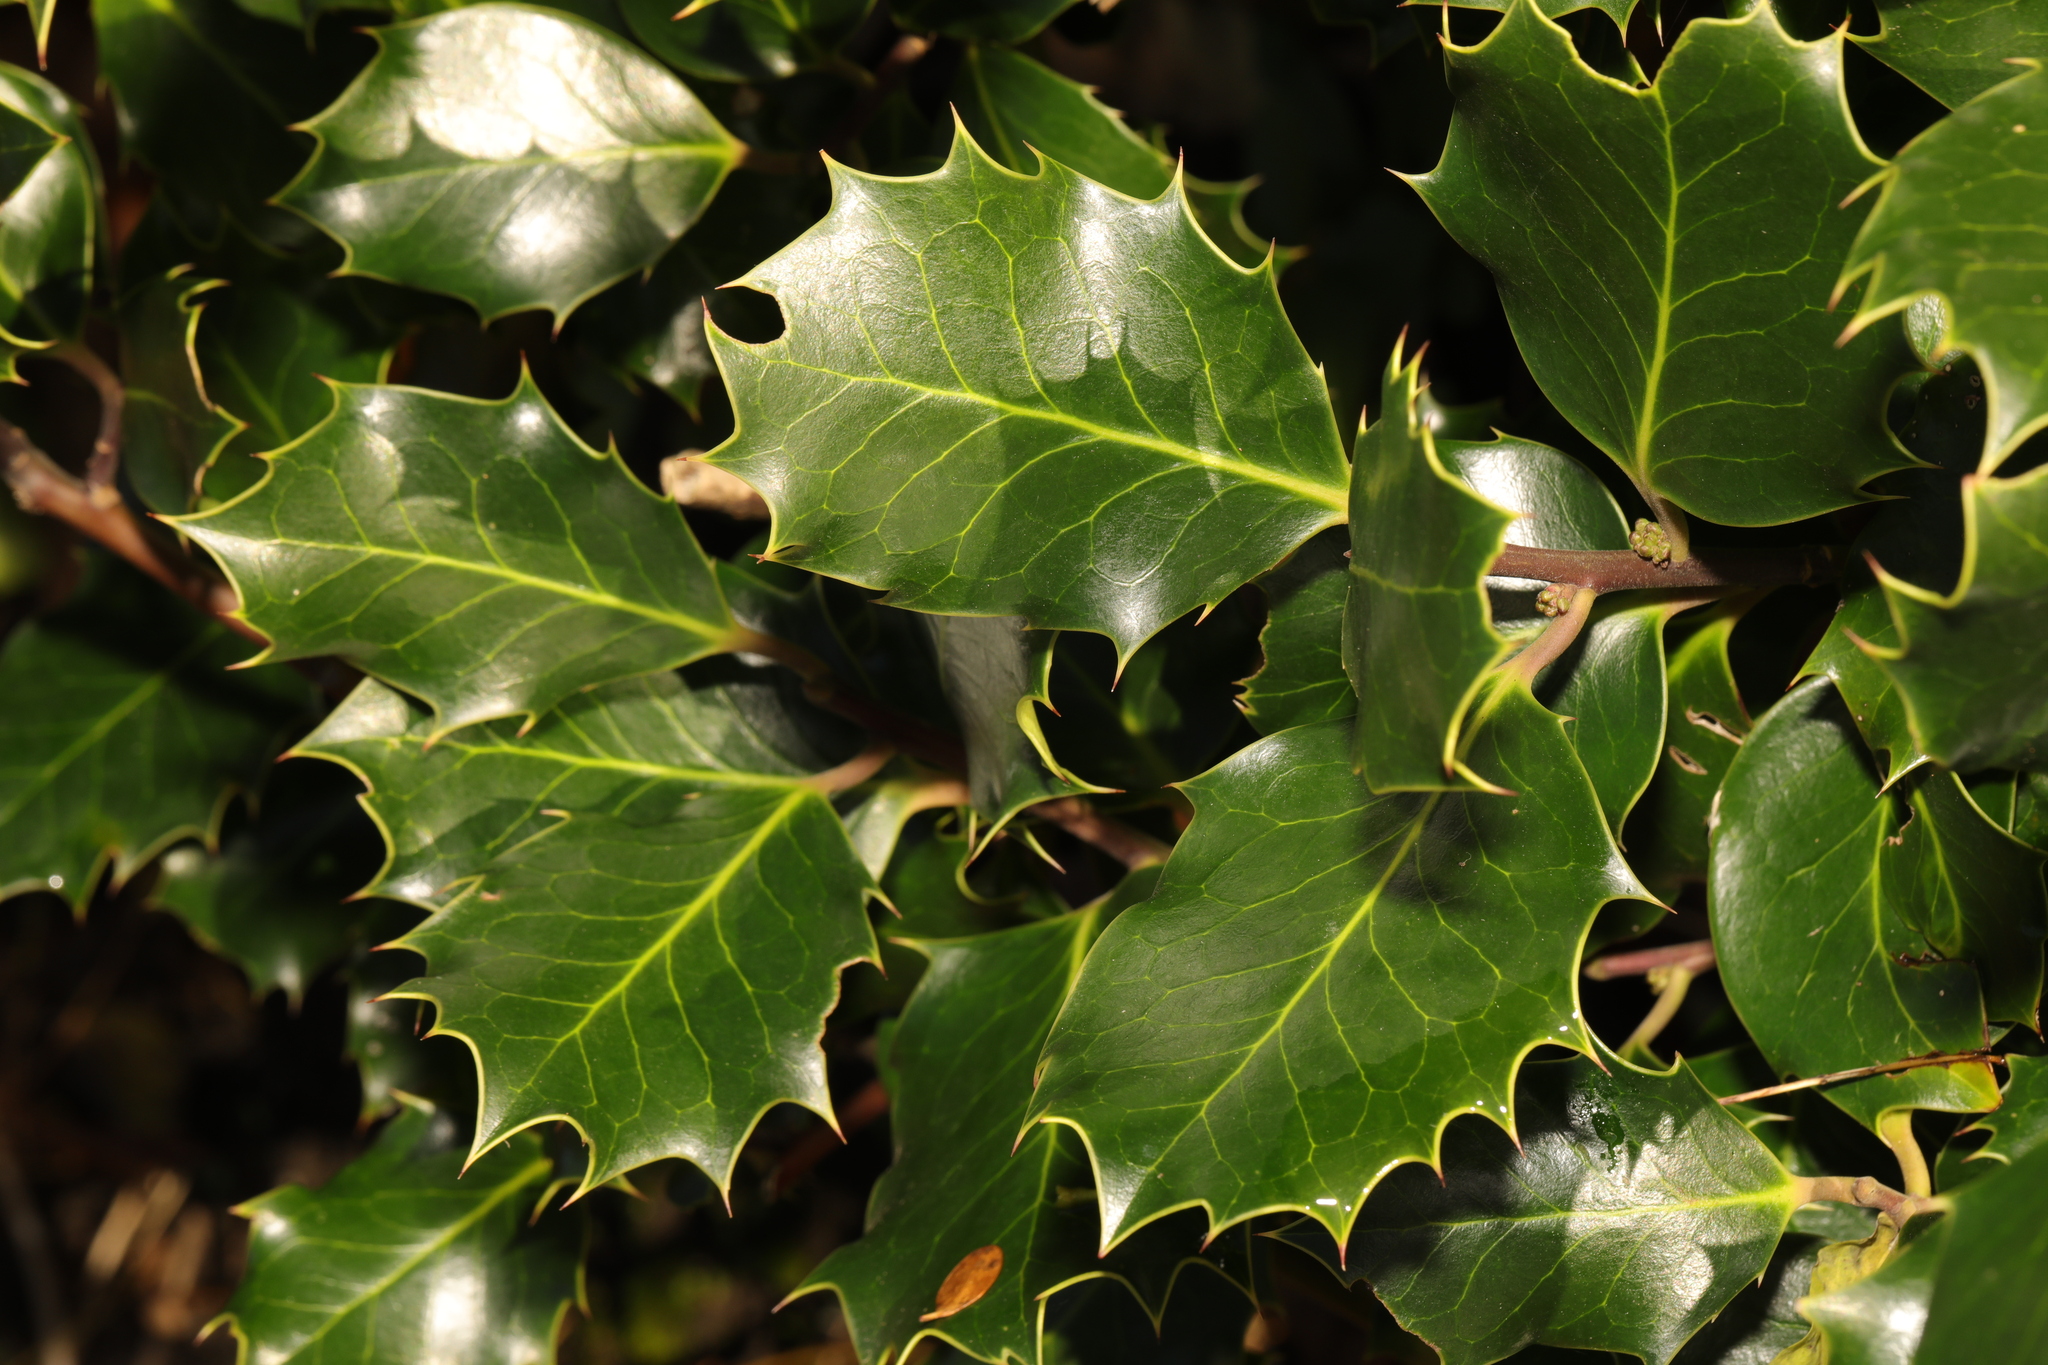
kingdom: Plantae
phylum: Tracheophyta
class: Magnoliopsida
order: Aquifoliales
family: Aquifoliaceae
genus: Ilex
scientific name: Ilex aquifolium
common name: English holly
